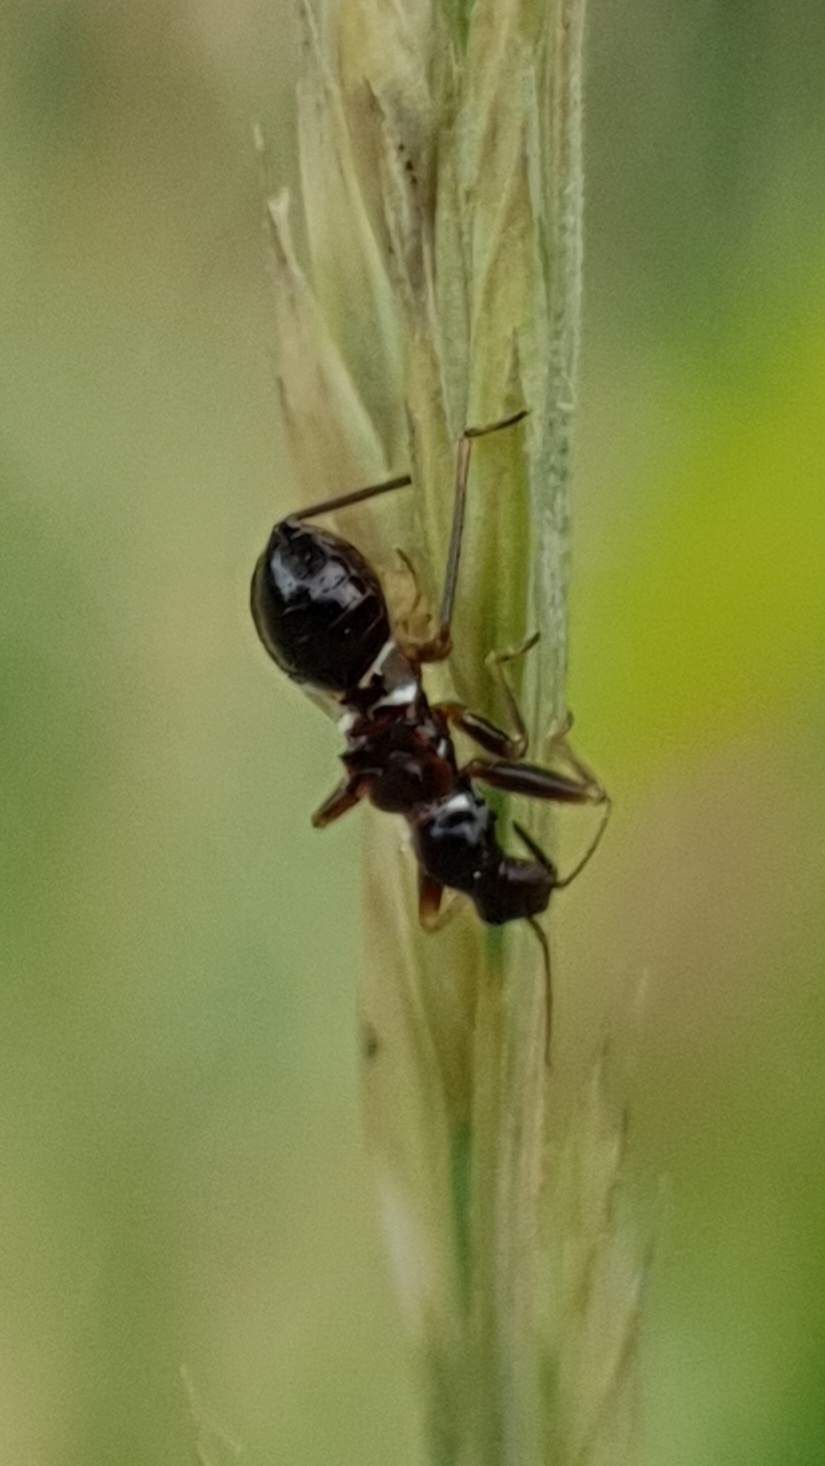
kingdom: Animalia
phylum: Arthropoda
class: Insecta
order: Hemiptera
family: Nabidae
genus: Himacerus
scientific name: Himacerus mirmicoides
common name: Ant damsel bug
